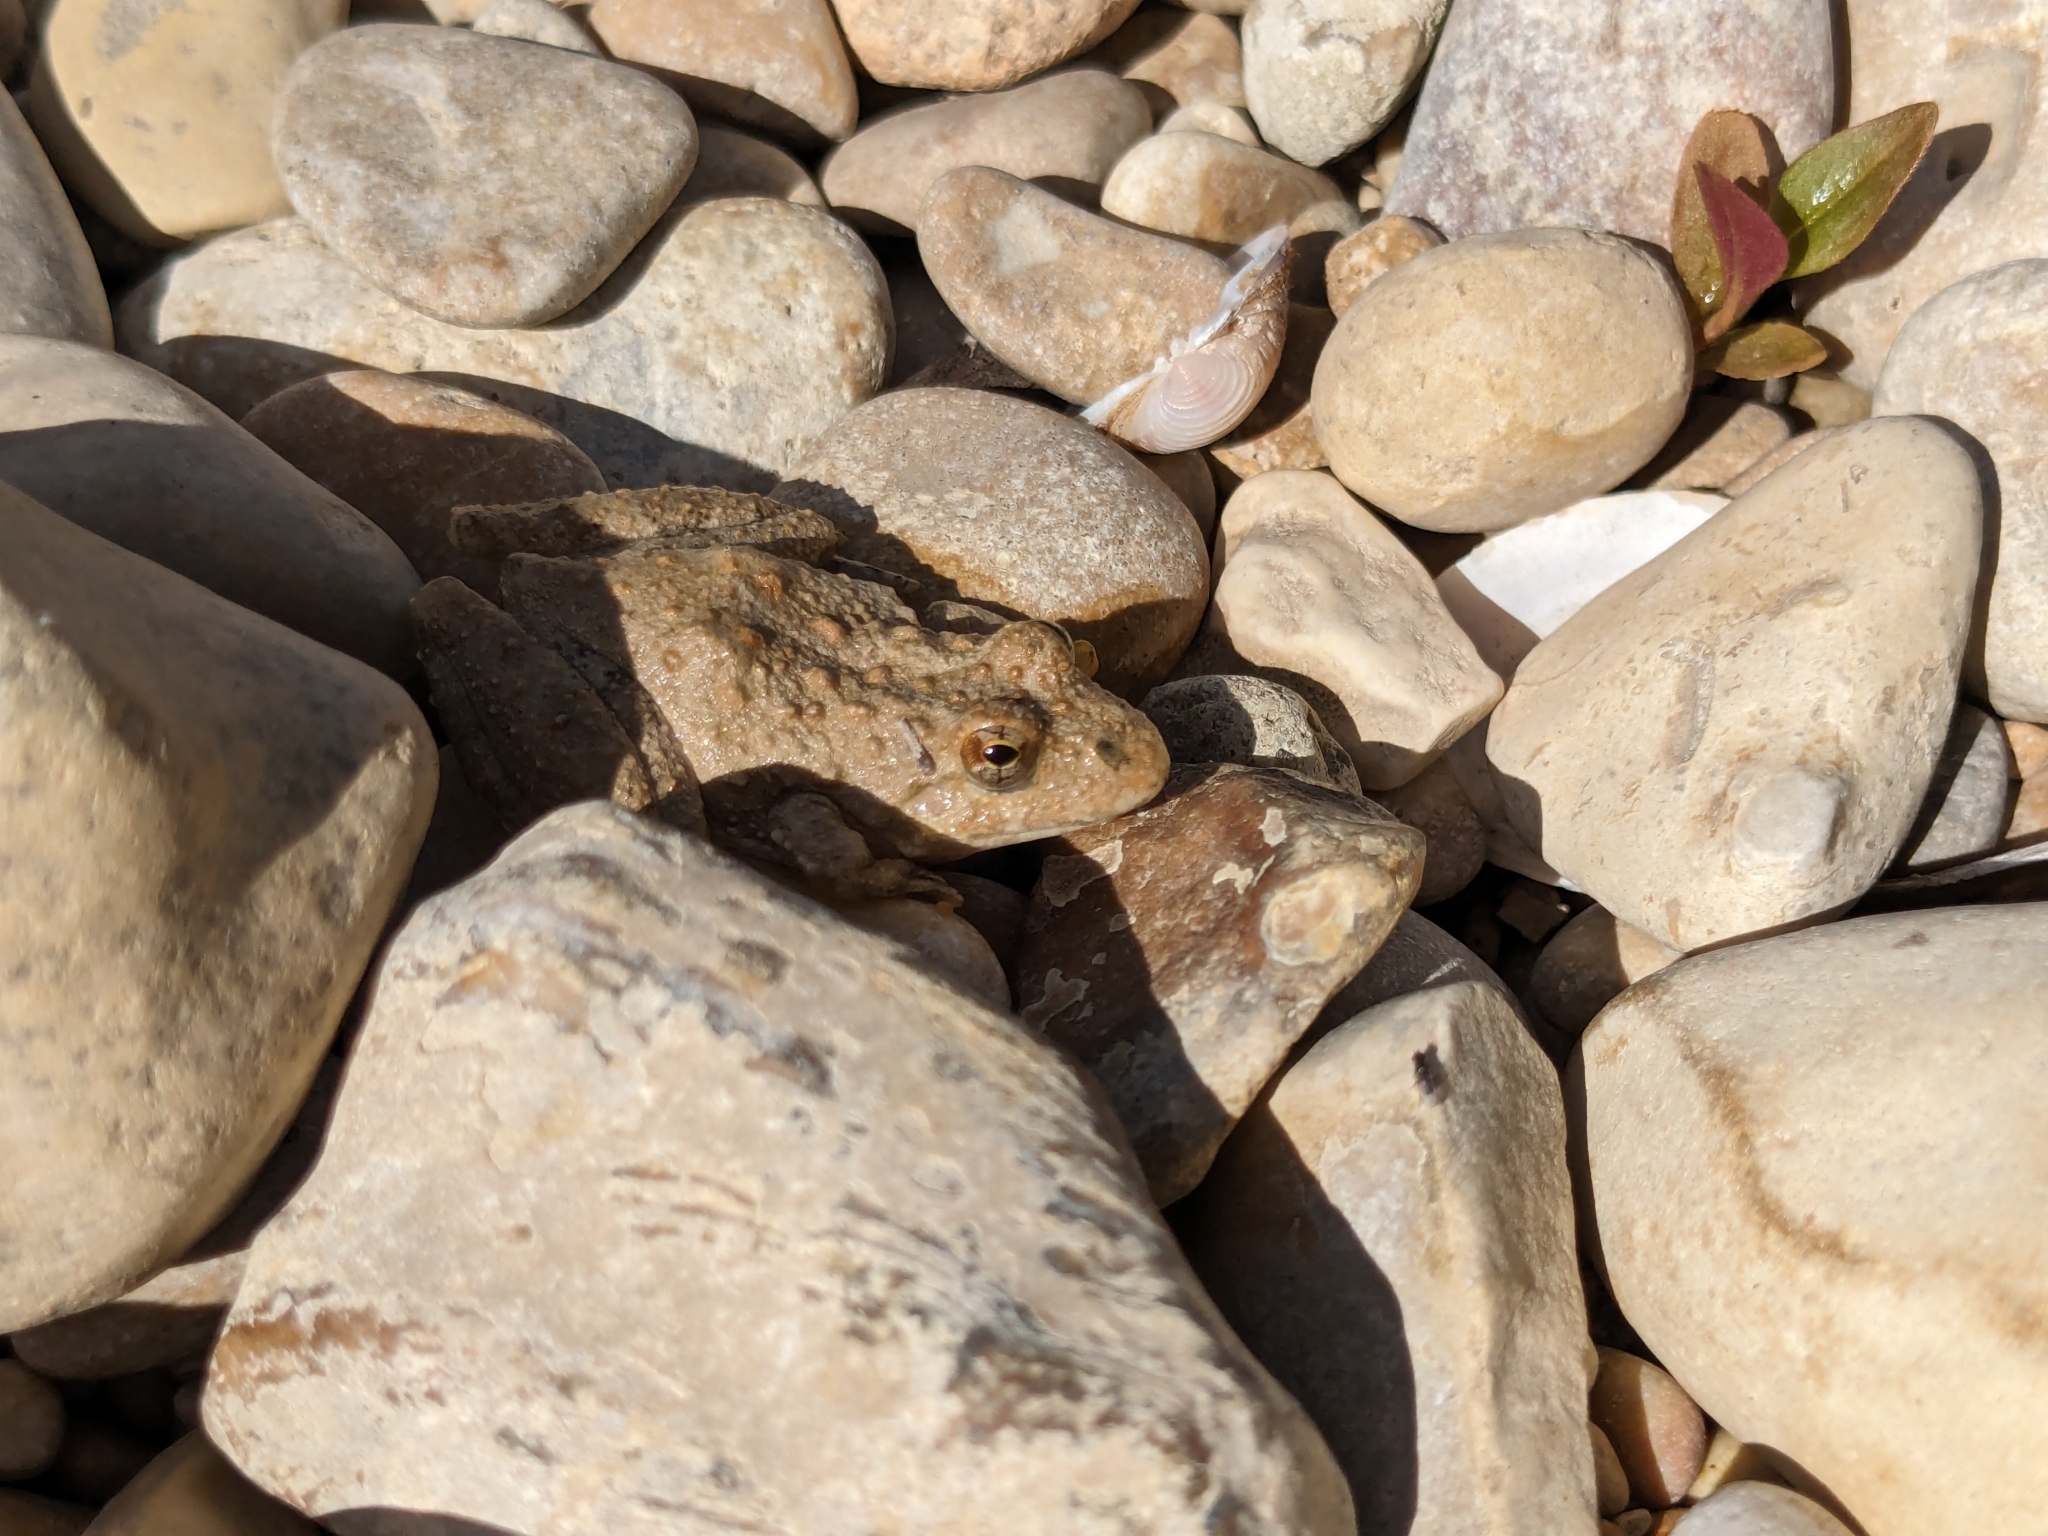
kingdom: Animalia
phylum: Chordata
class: Amphibia
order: Anura
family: Hylidae
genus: Acris
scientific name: Acris blanchardi
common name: Blanchard's cricket frog
